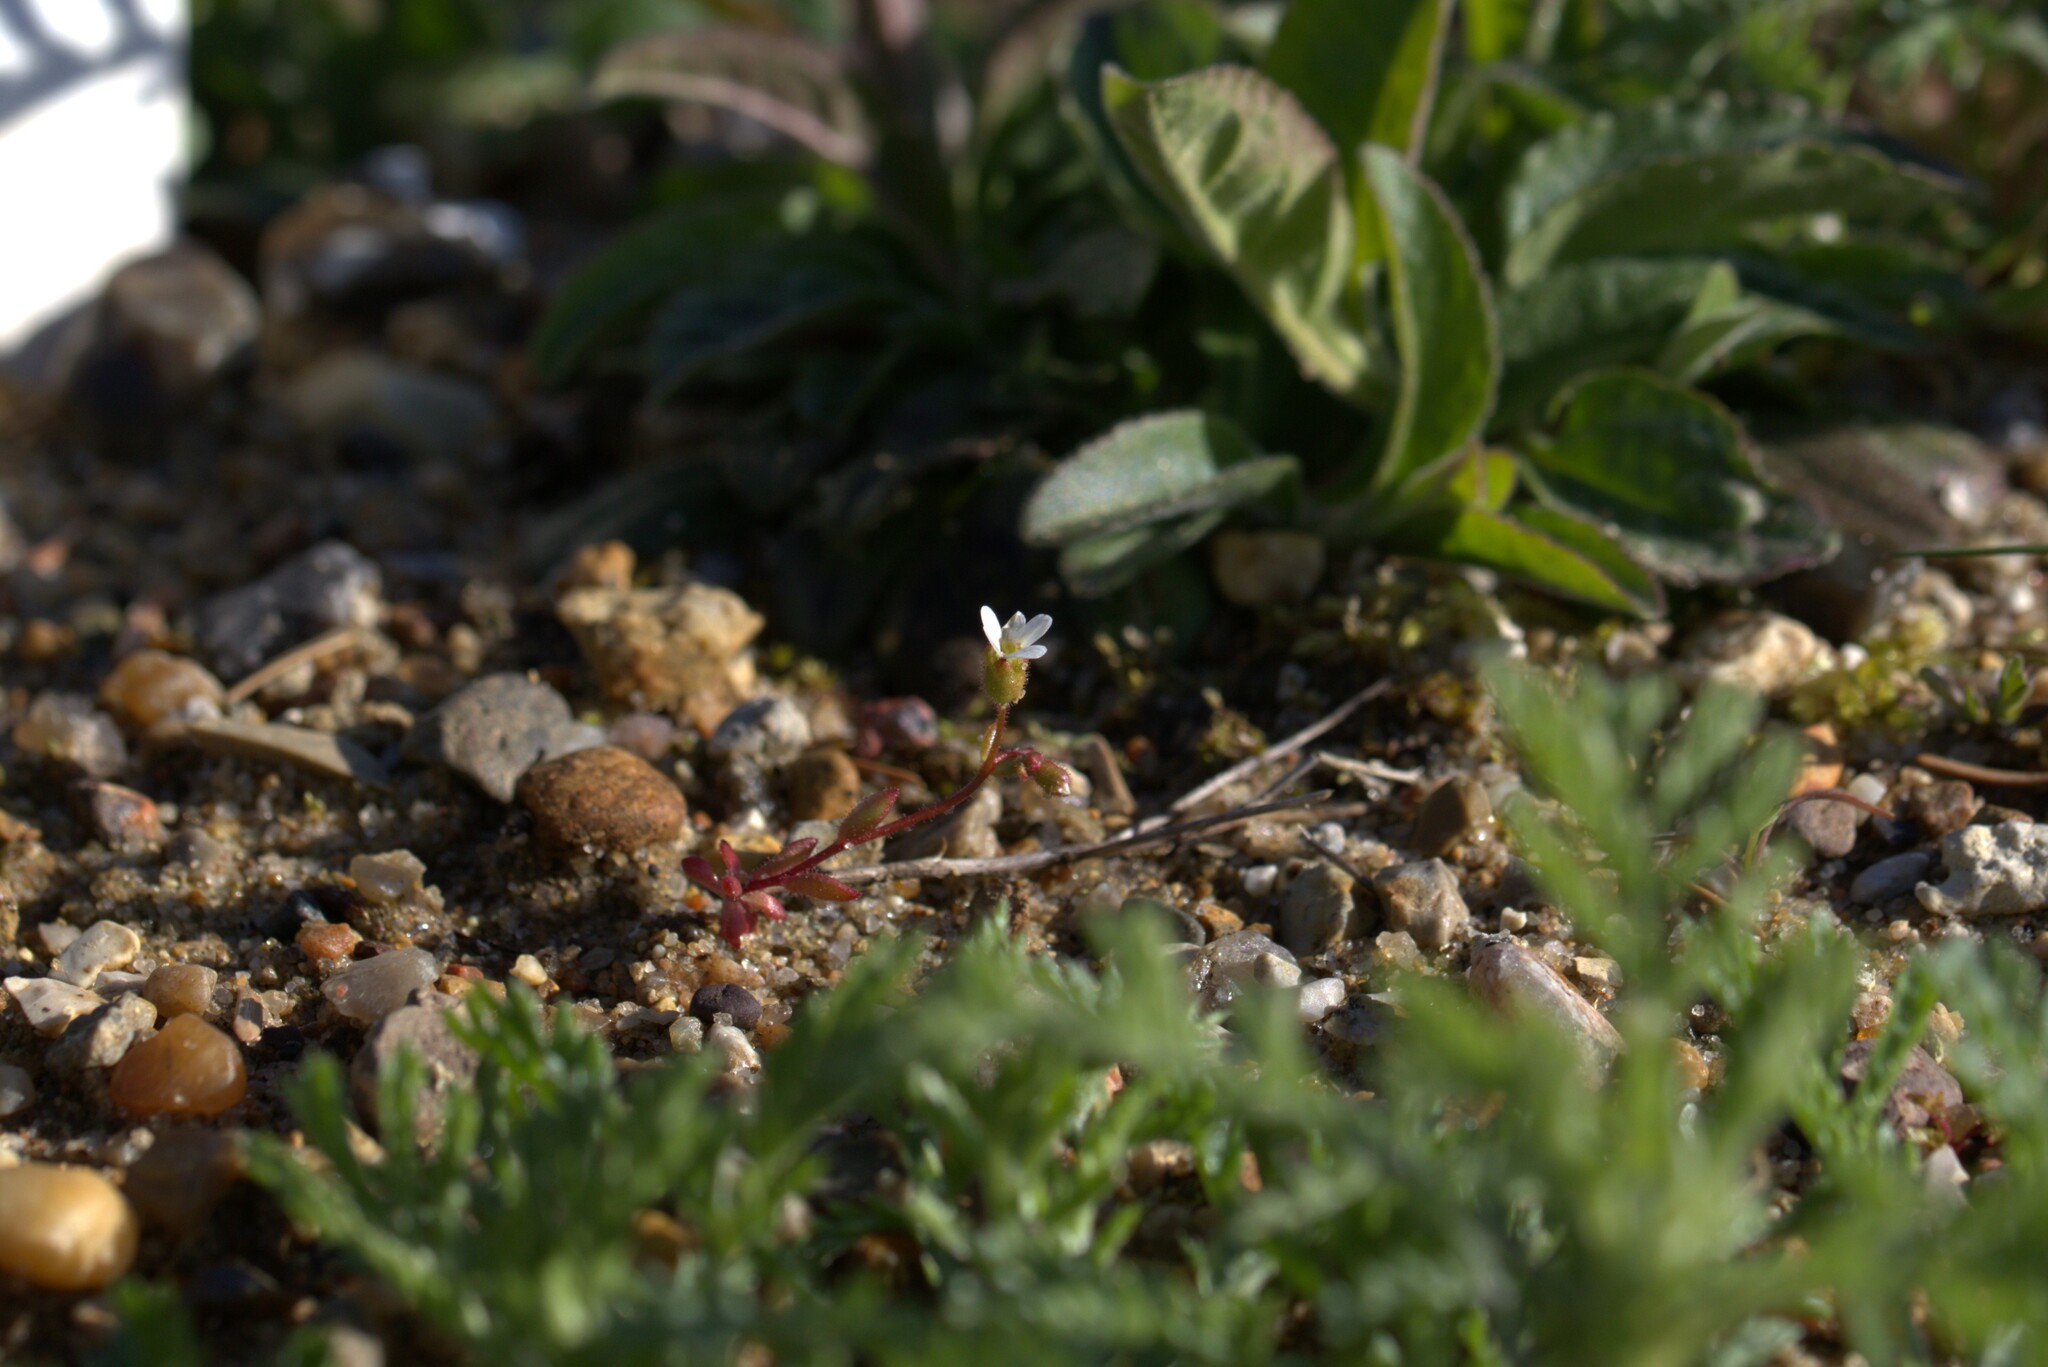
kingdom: Plantae
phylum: Tracheophyta
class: Magnoliopsida
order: Saxifragales
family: Saxifragaceae
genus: Saxifraga
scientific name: Saxifraga tridactylites
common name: Rue-leaved saxifrage
